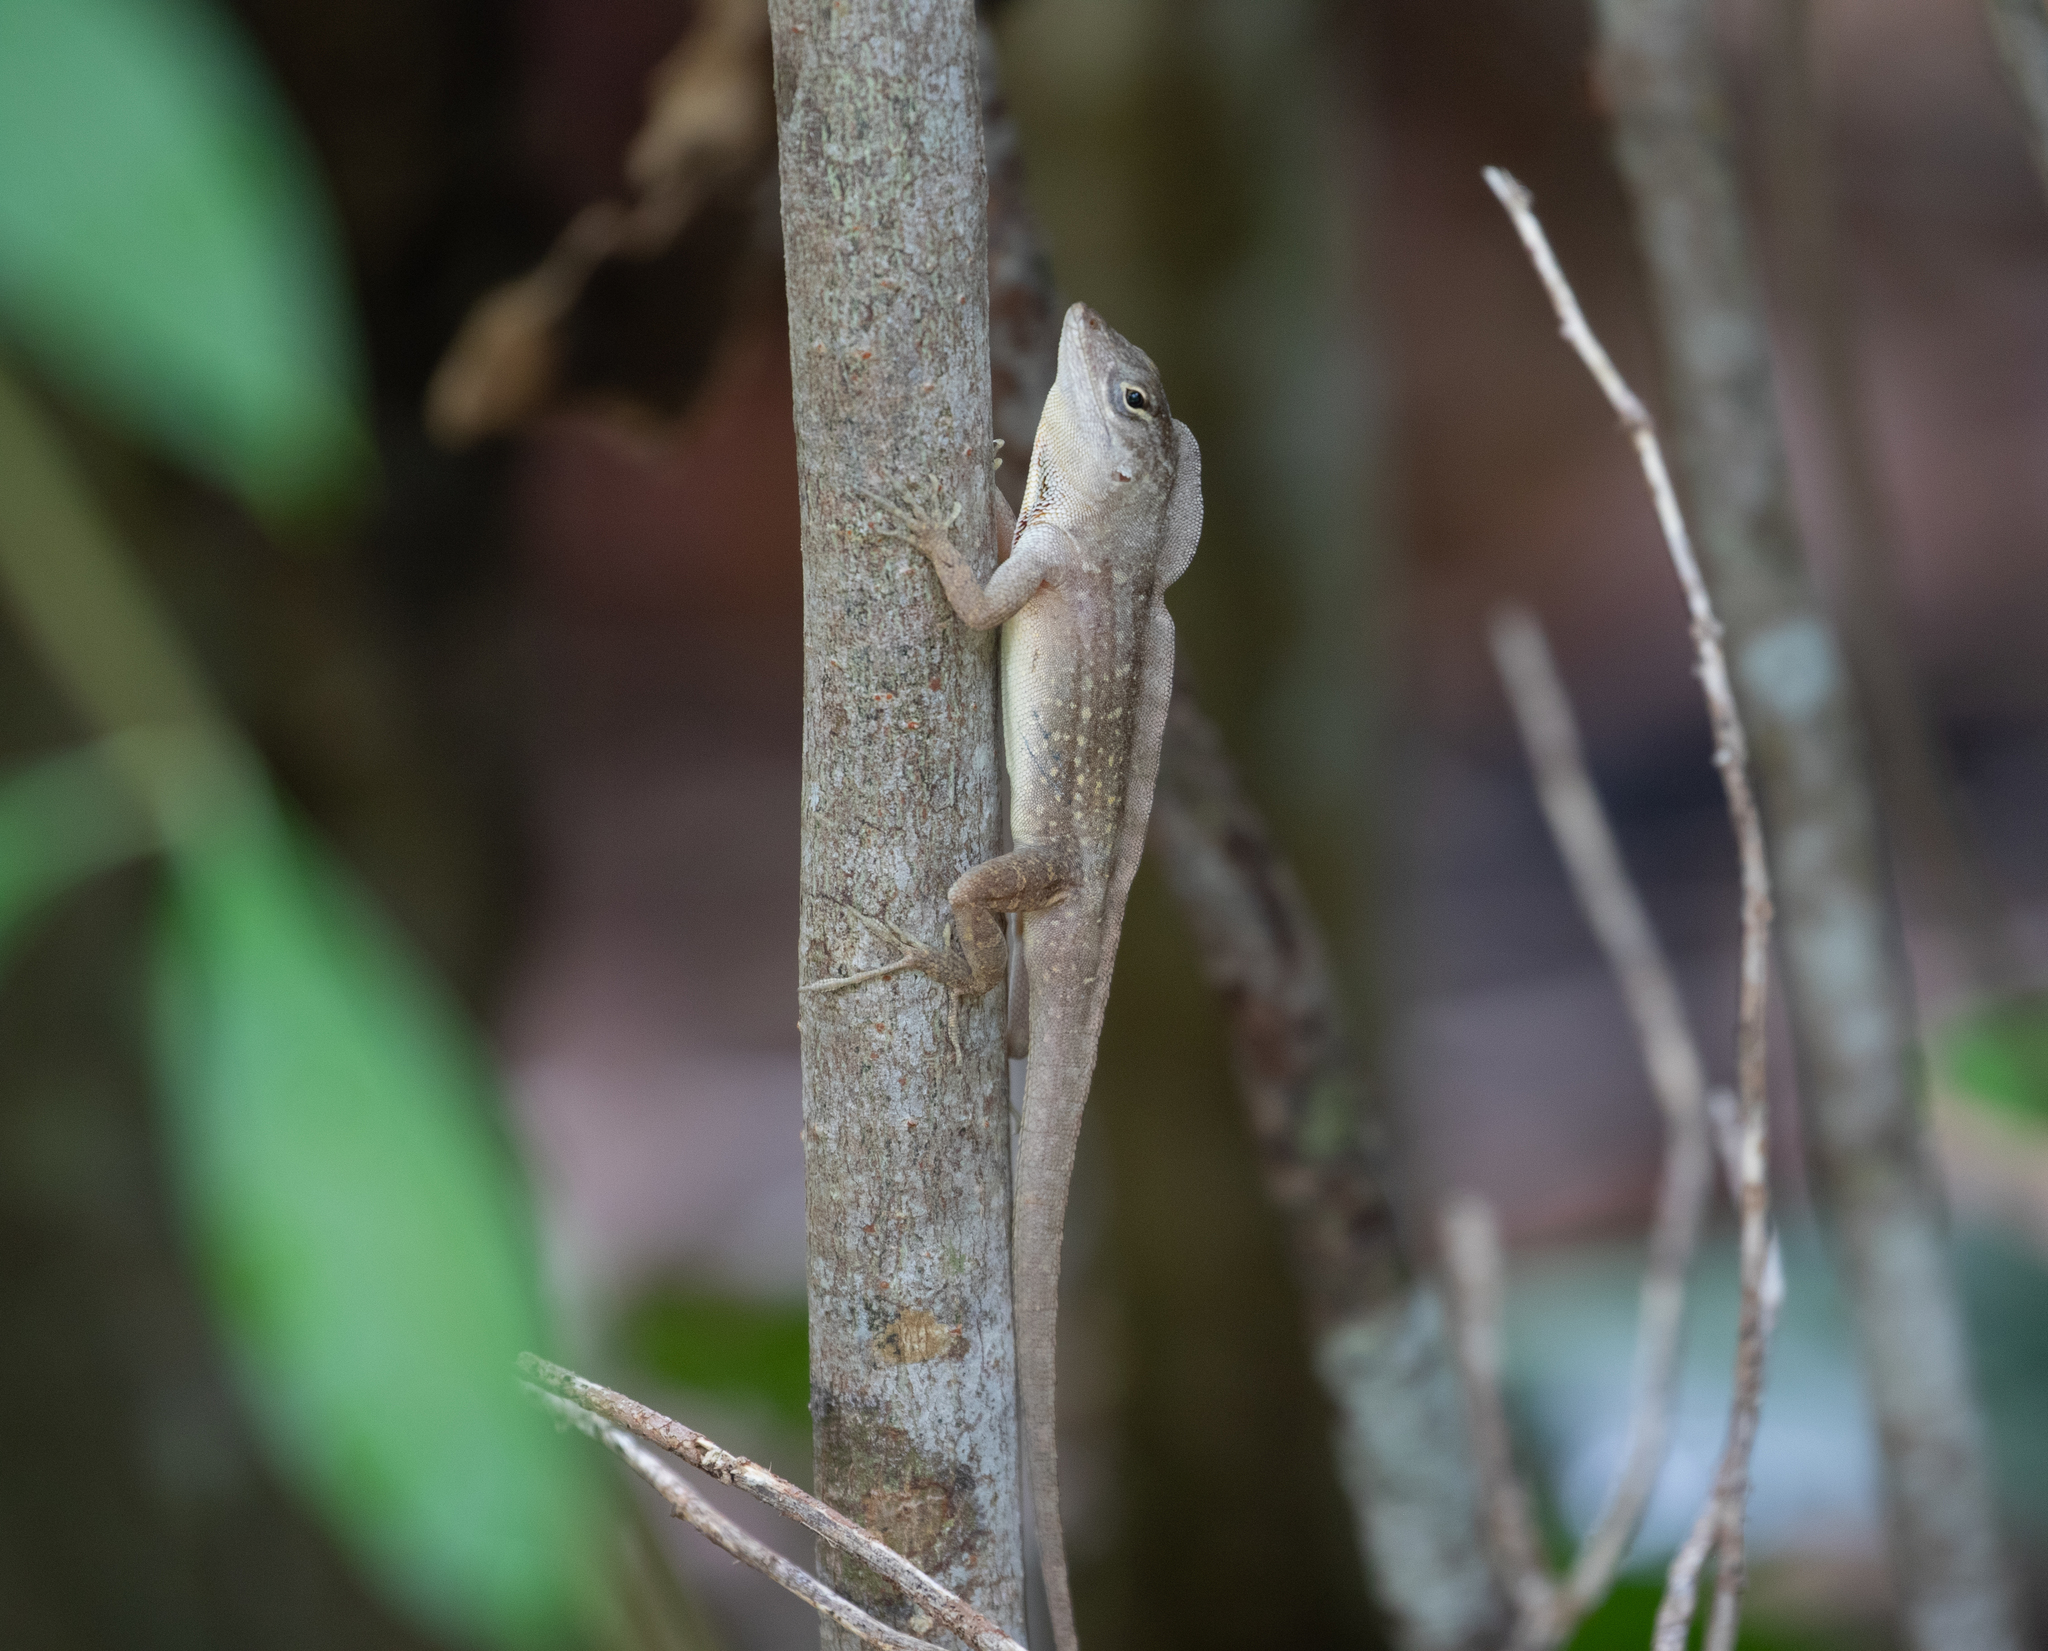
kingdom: Animalia
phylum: Chordata
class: Squamata
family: Dactyloidae
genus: Anolis
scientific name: Anolis sagrei
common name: Brown anole
